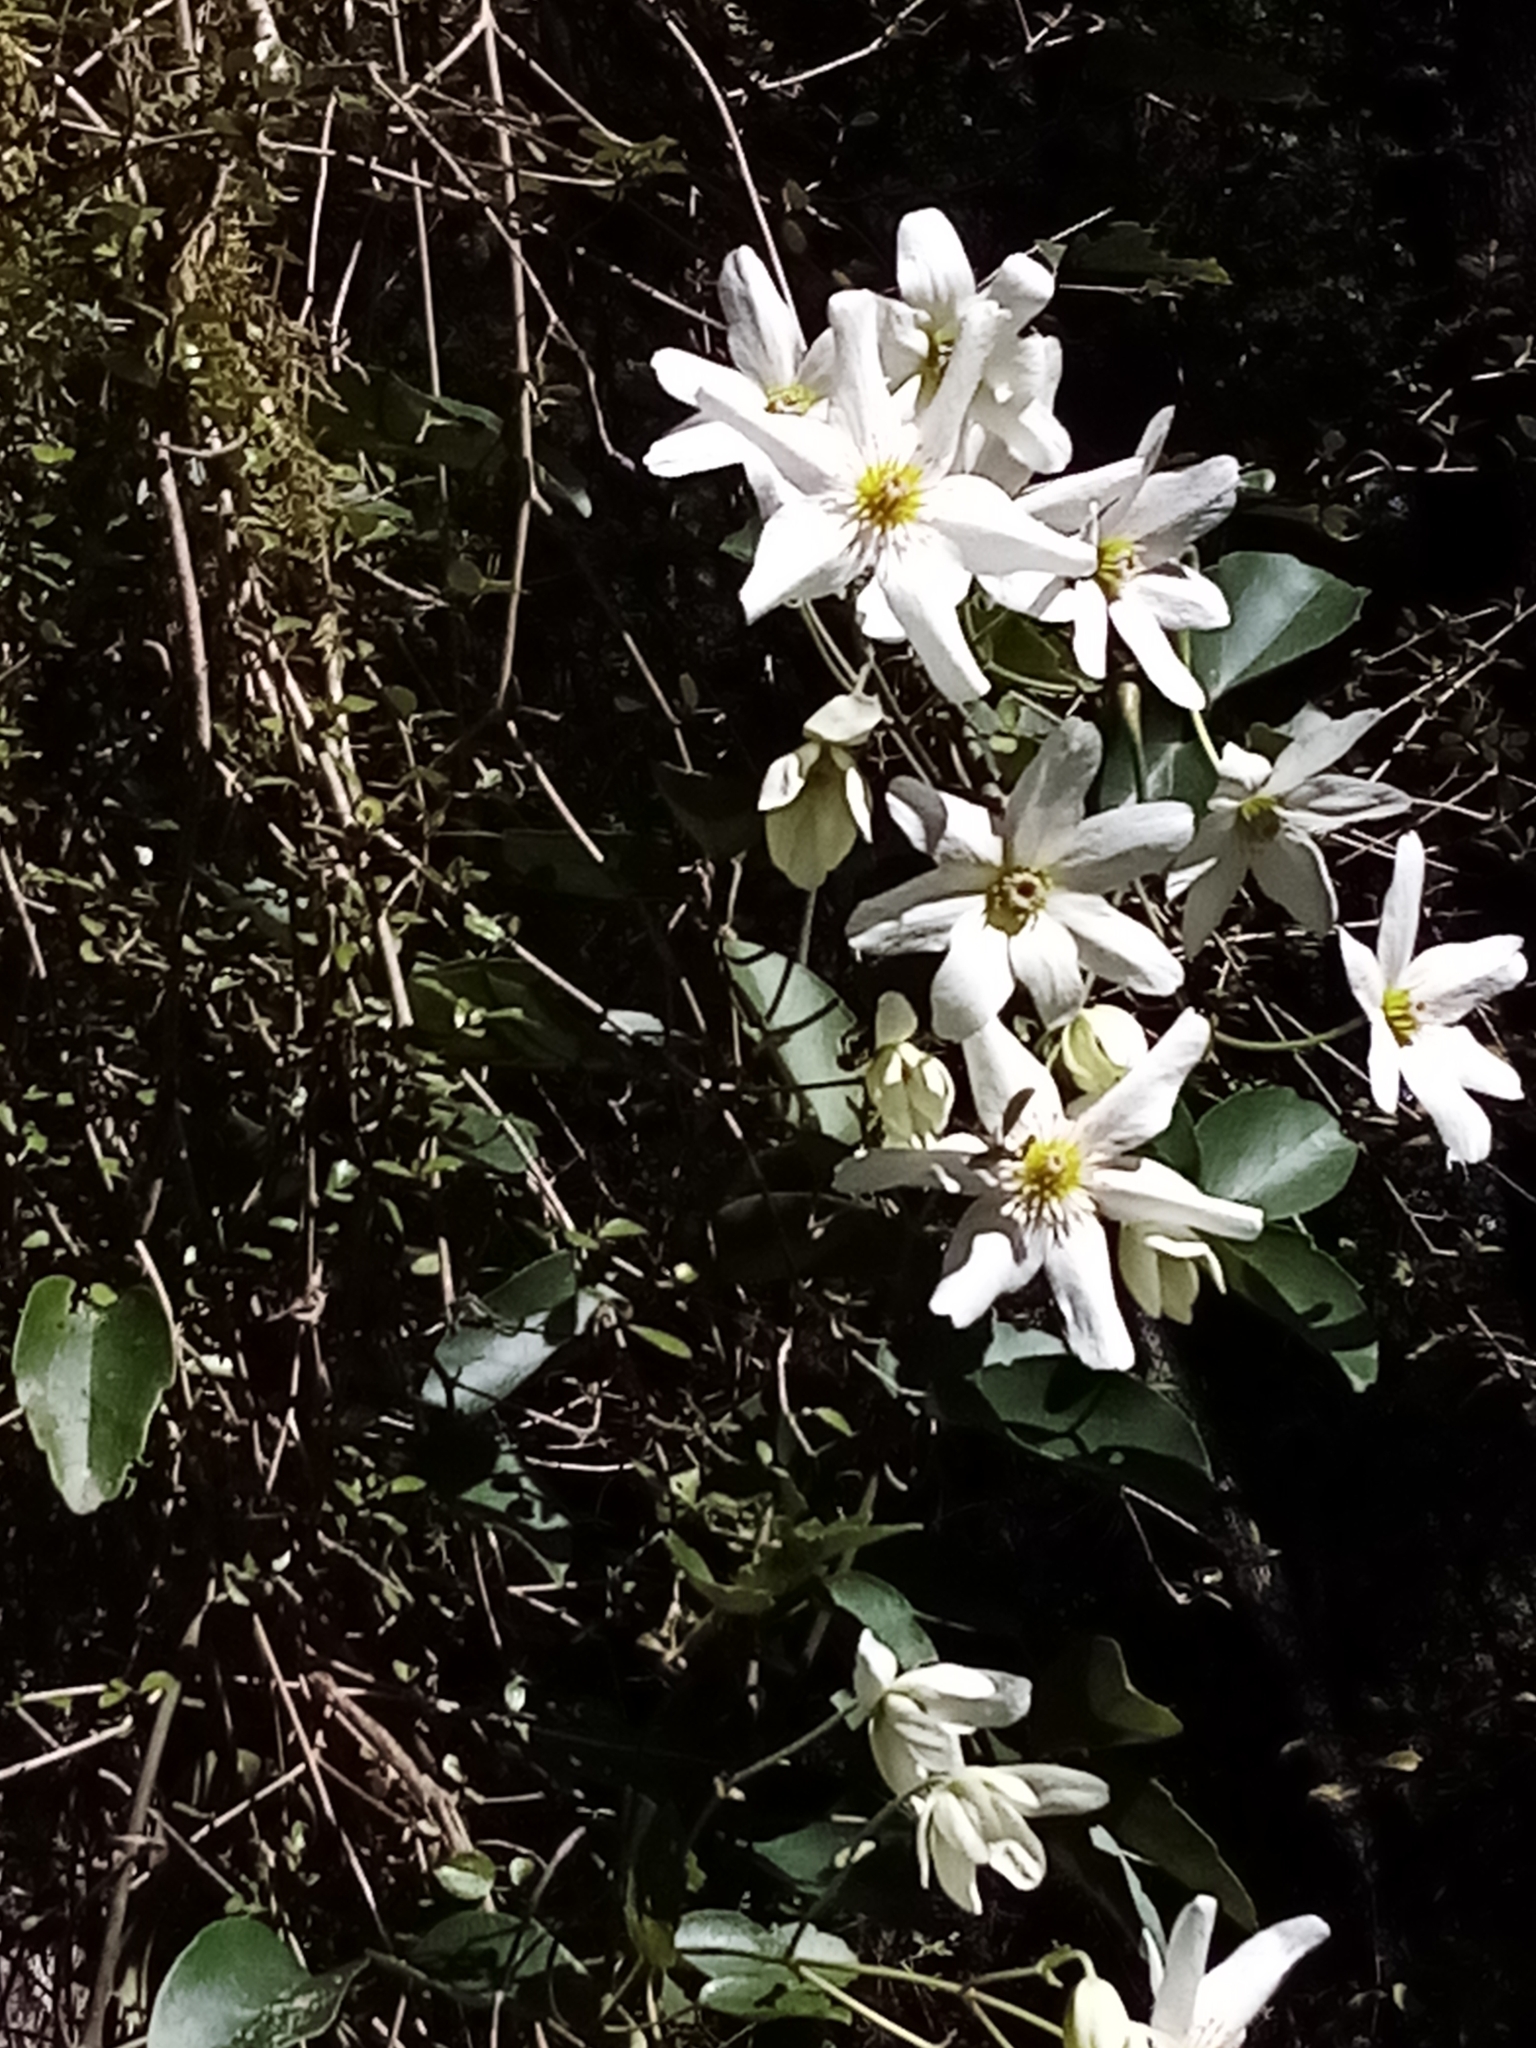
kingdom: Plantae
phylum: Tracheophyta
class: Magnoliopsida
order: Ranunculales
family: Ranunculaceae
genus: Clematis
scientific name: Clematis paniculata
